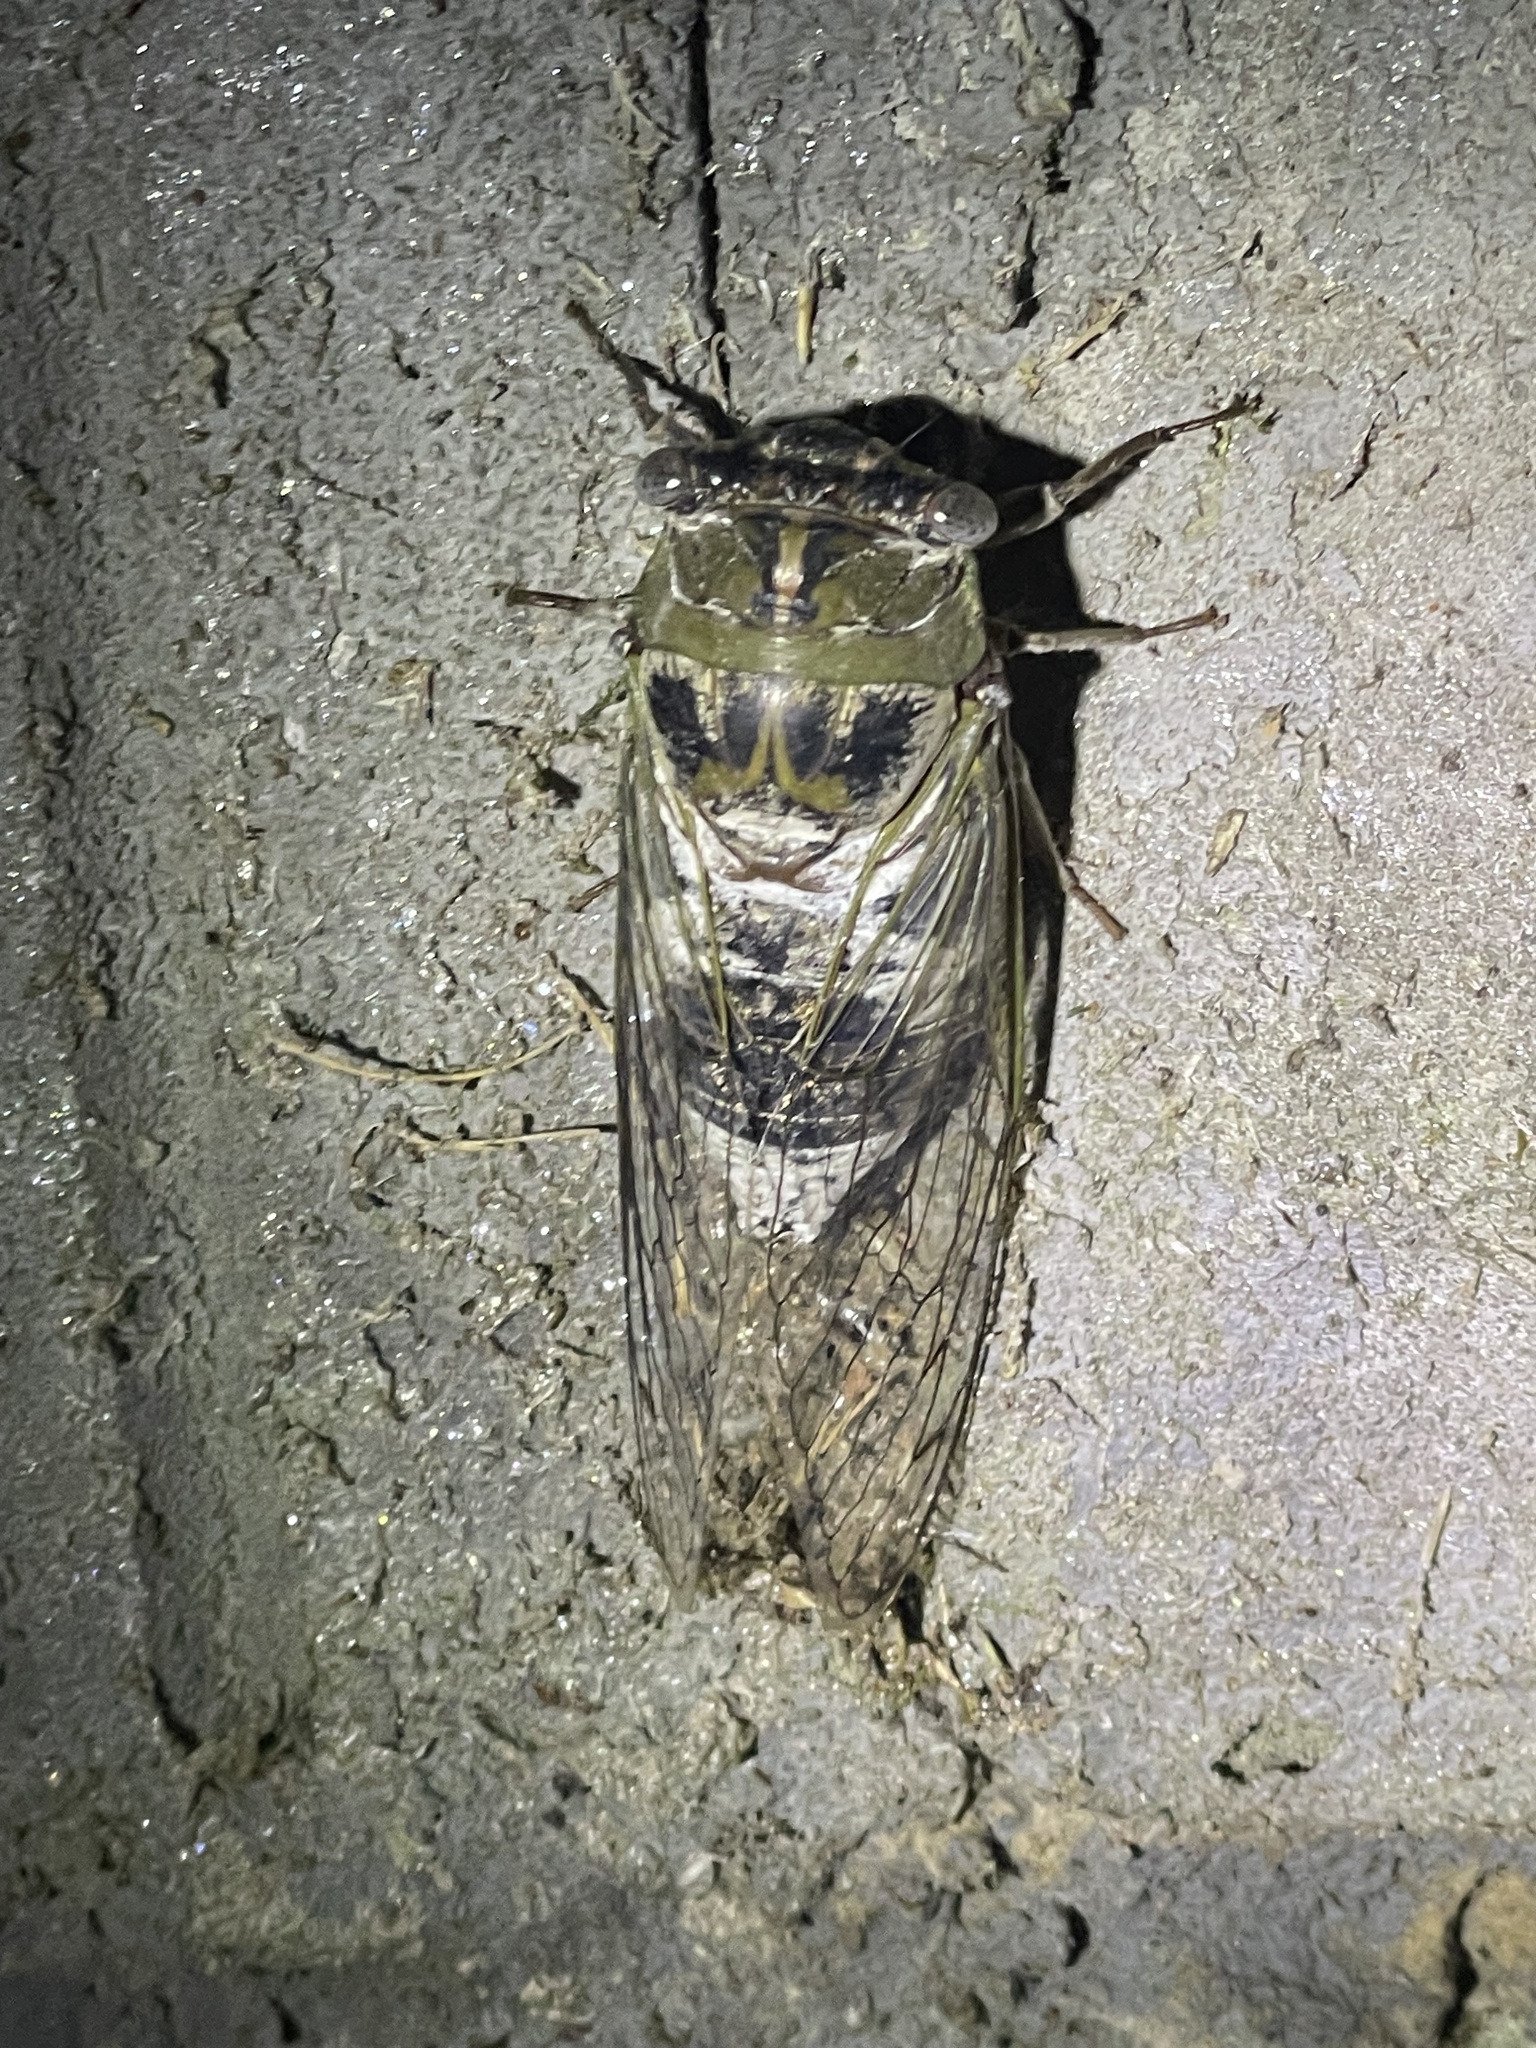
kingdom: Animalia
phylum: Arthropoda
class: Insecta
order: Hemiptera
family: Cicadidae
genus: Diceroprocta
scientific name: Diceroprocta grossa
